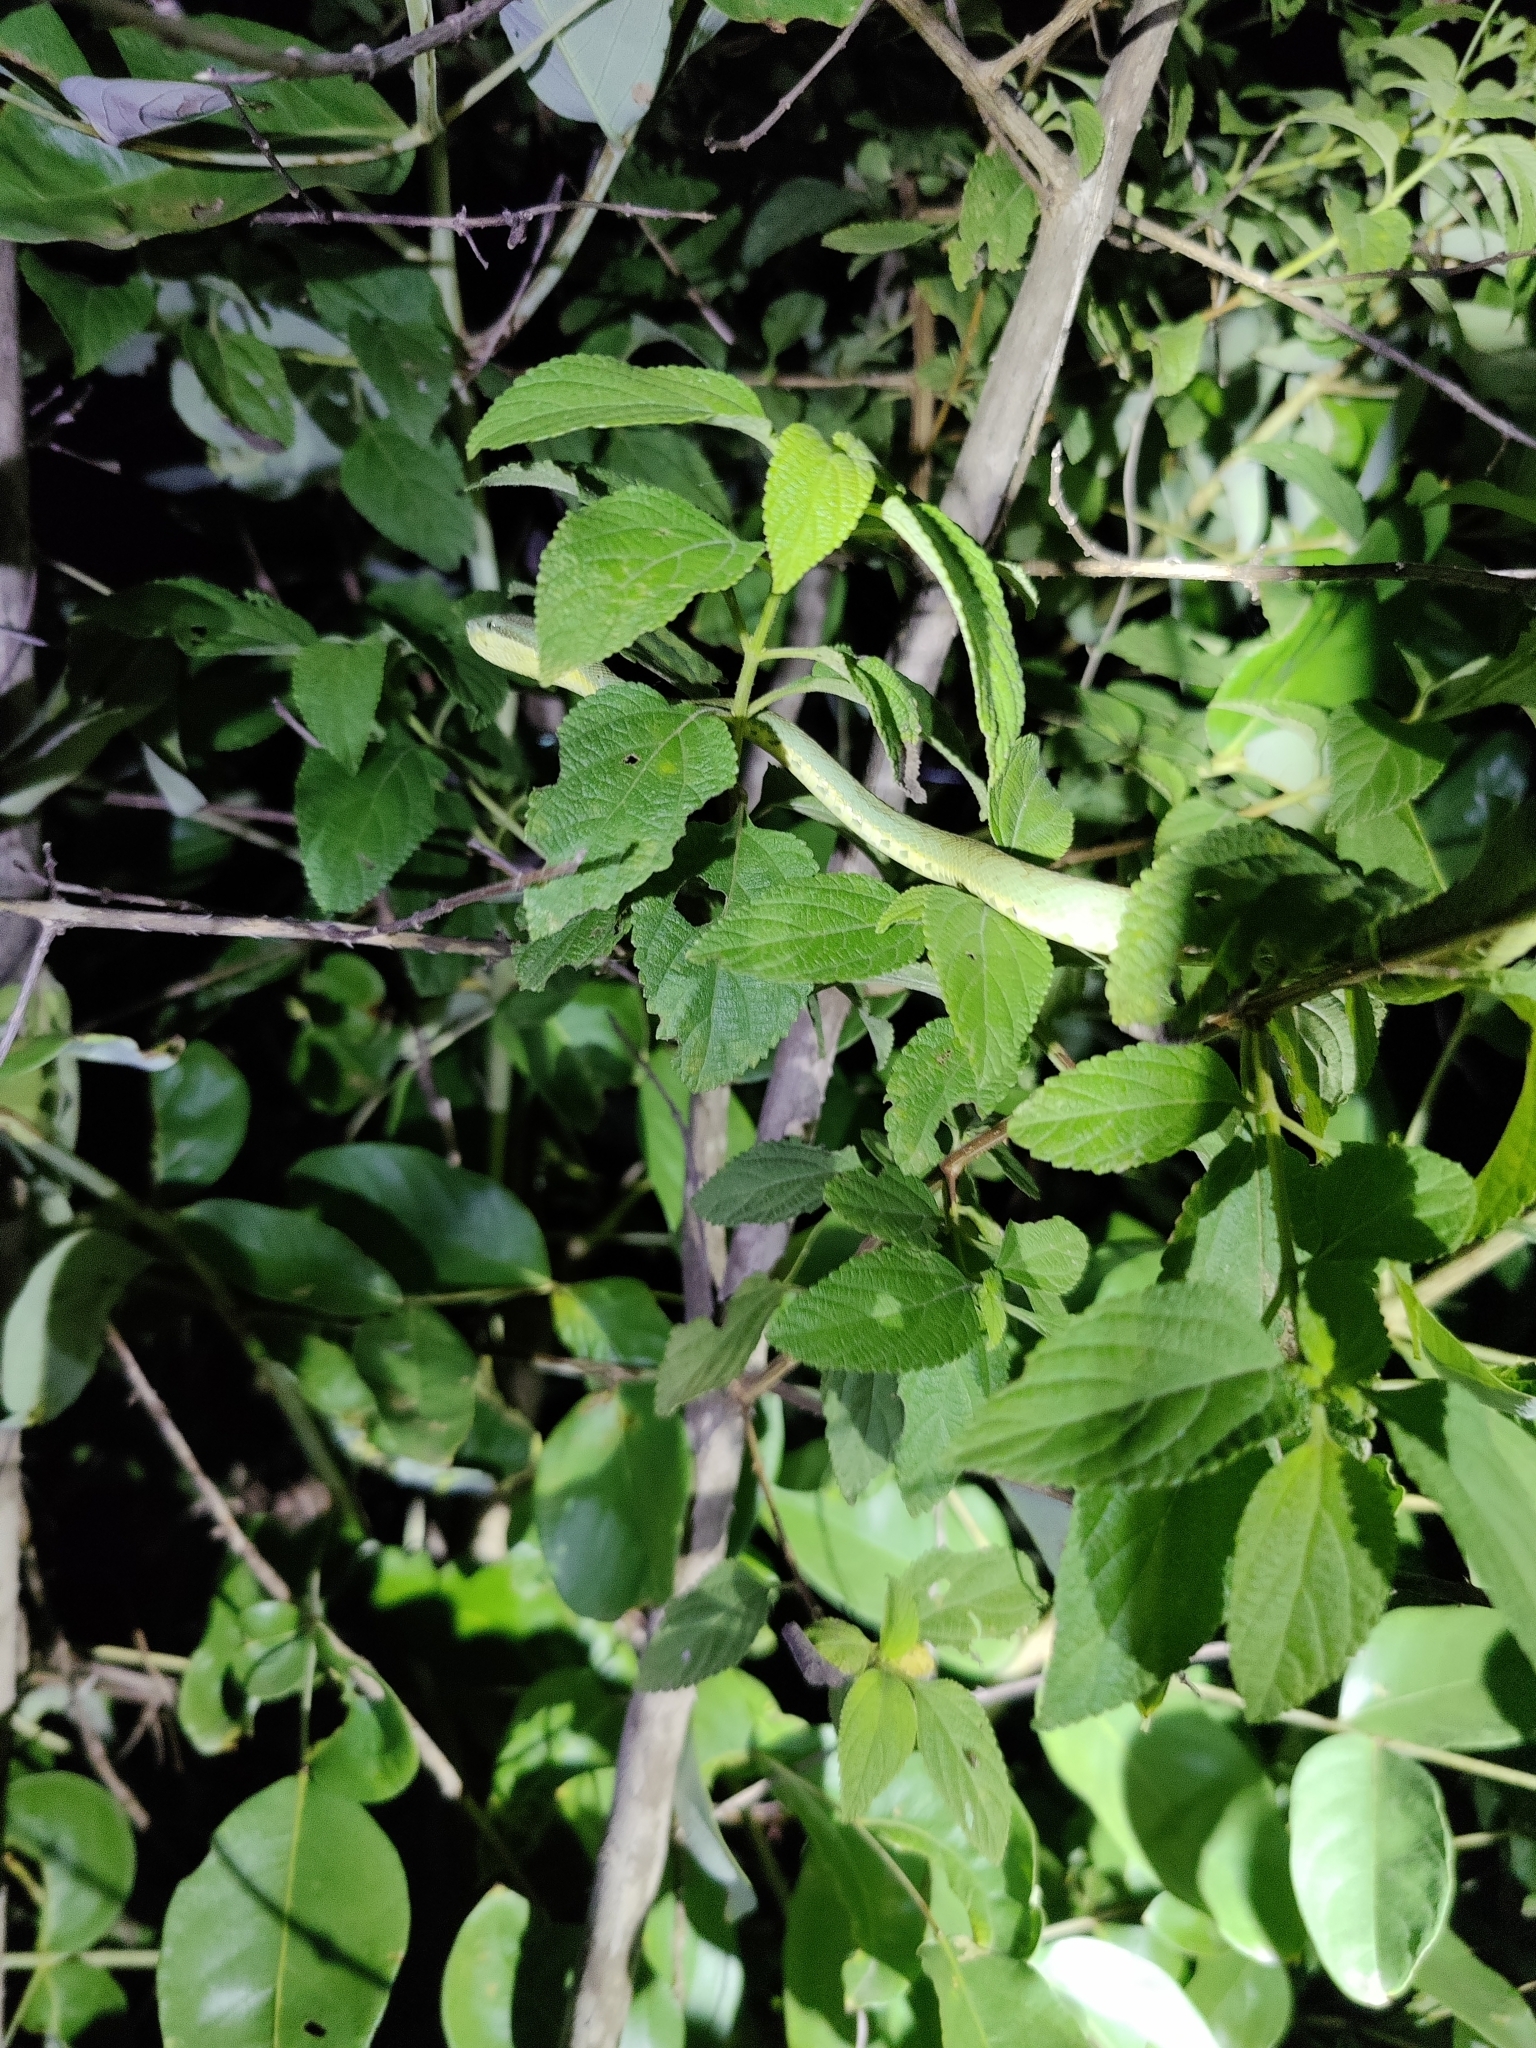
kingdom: Animalia
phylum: Chordata
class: Squamata
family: Viperidae
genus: Craspedocephalus
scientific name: Craspedocephalus gramineus
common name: Common bamboo viper
